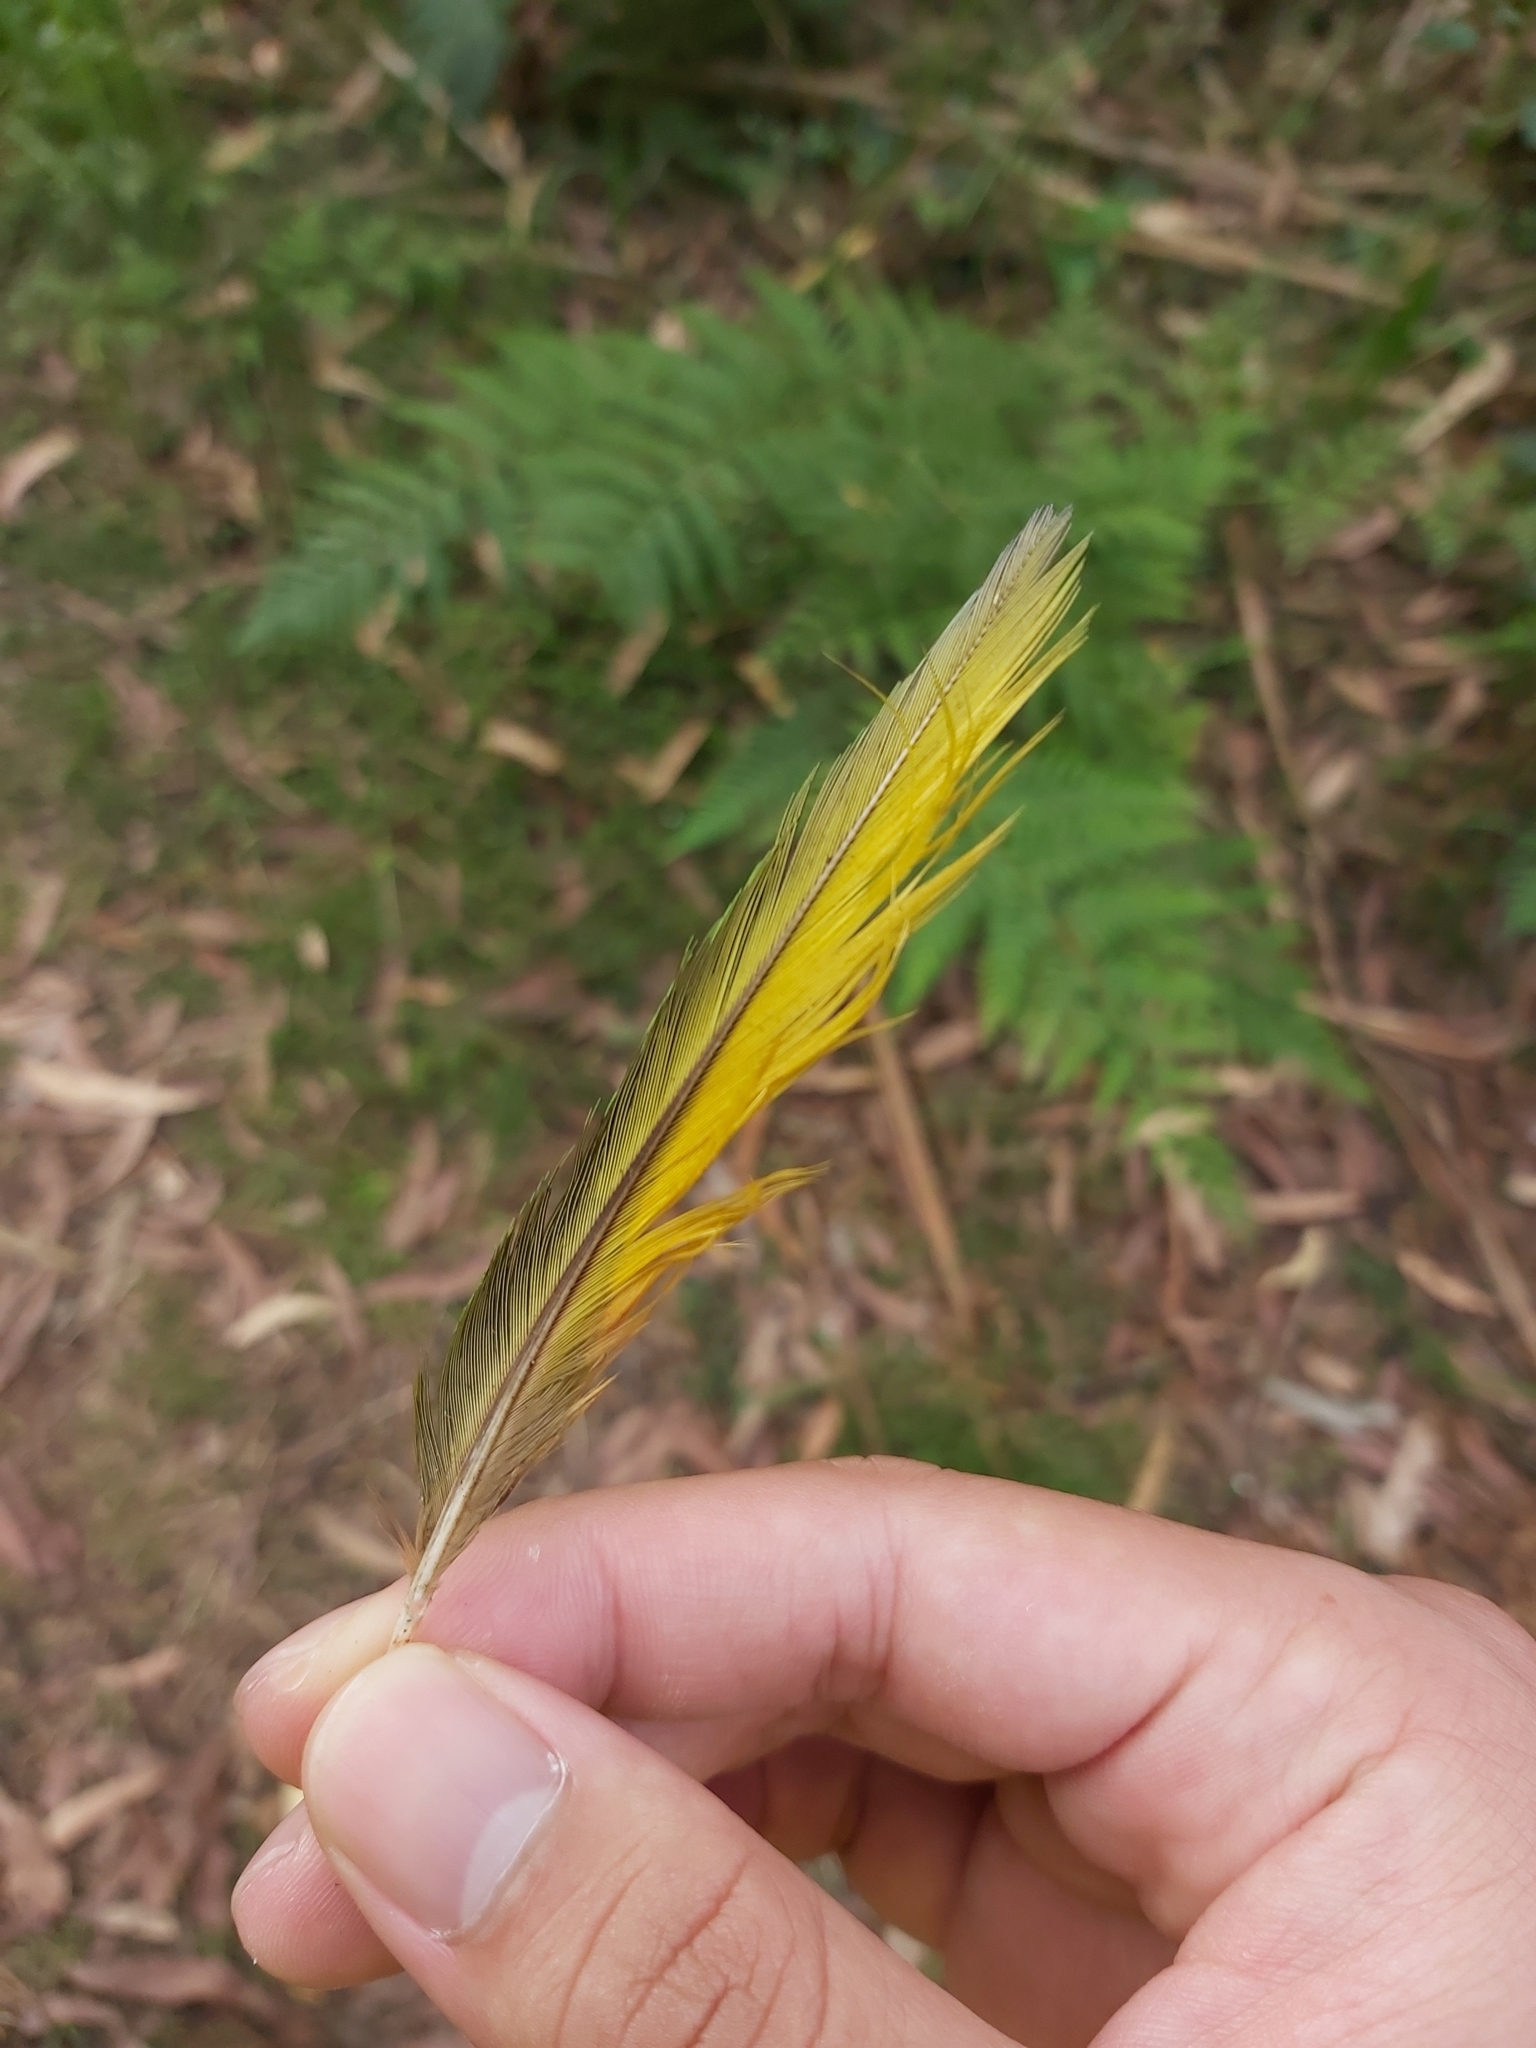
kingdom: Animalia
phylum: Chordata
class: Aves
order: Psittaciformes
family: Psittacidae
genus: Trichoglossus
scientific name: Trichoglossus haematodus
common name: Coconut lorikeet
